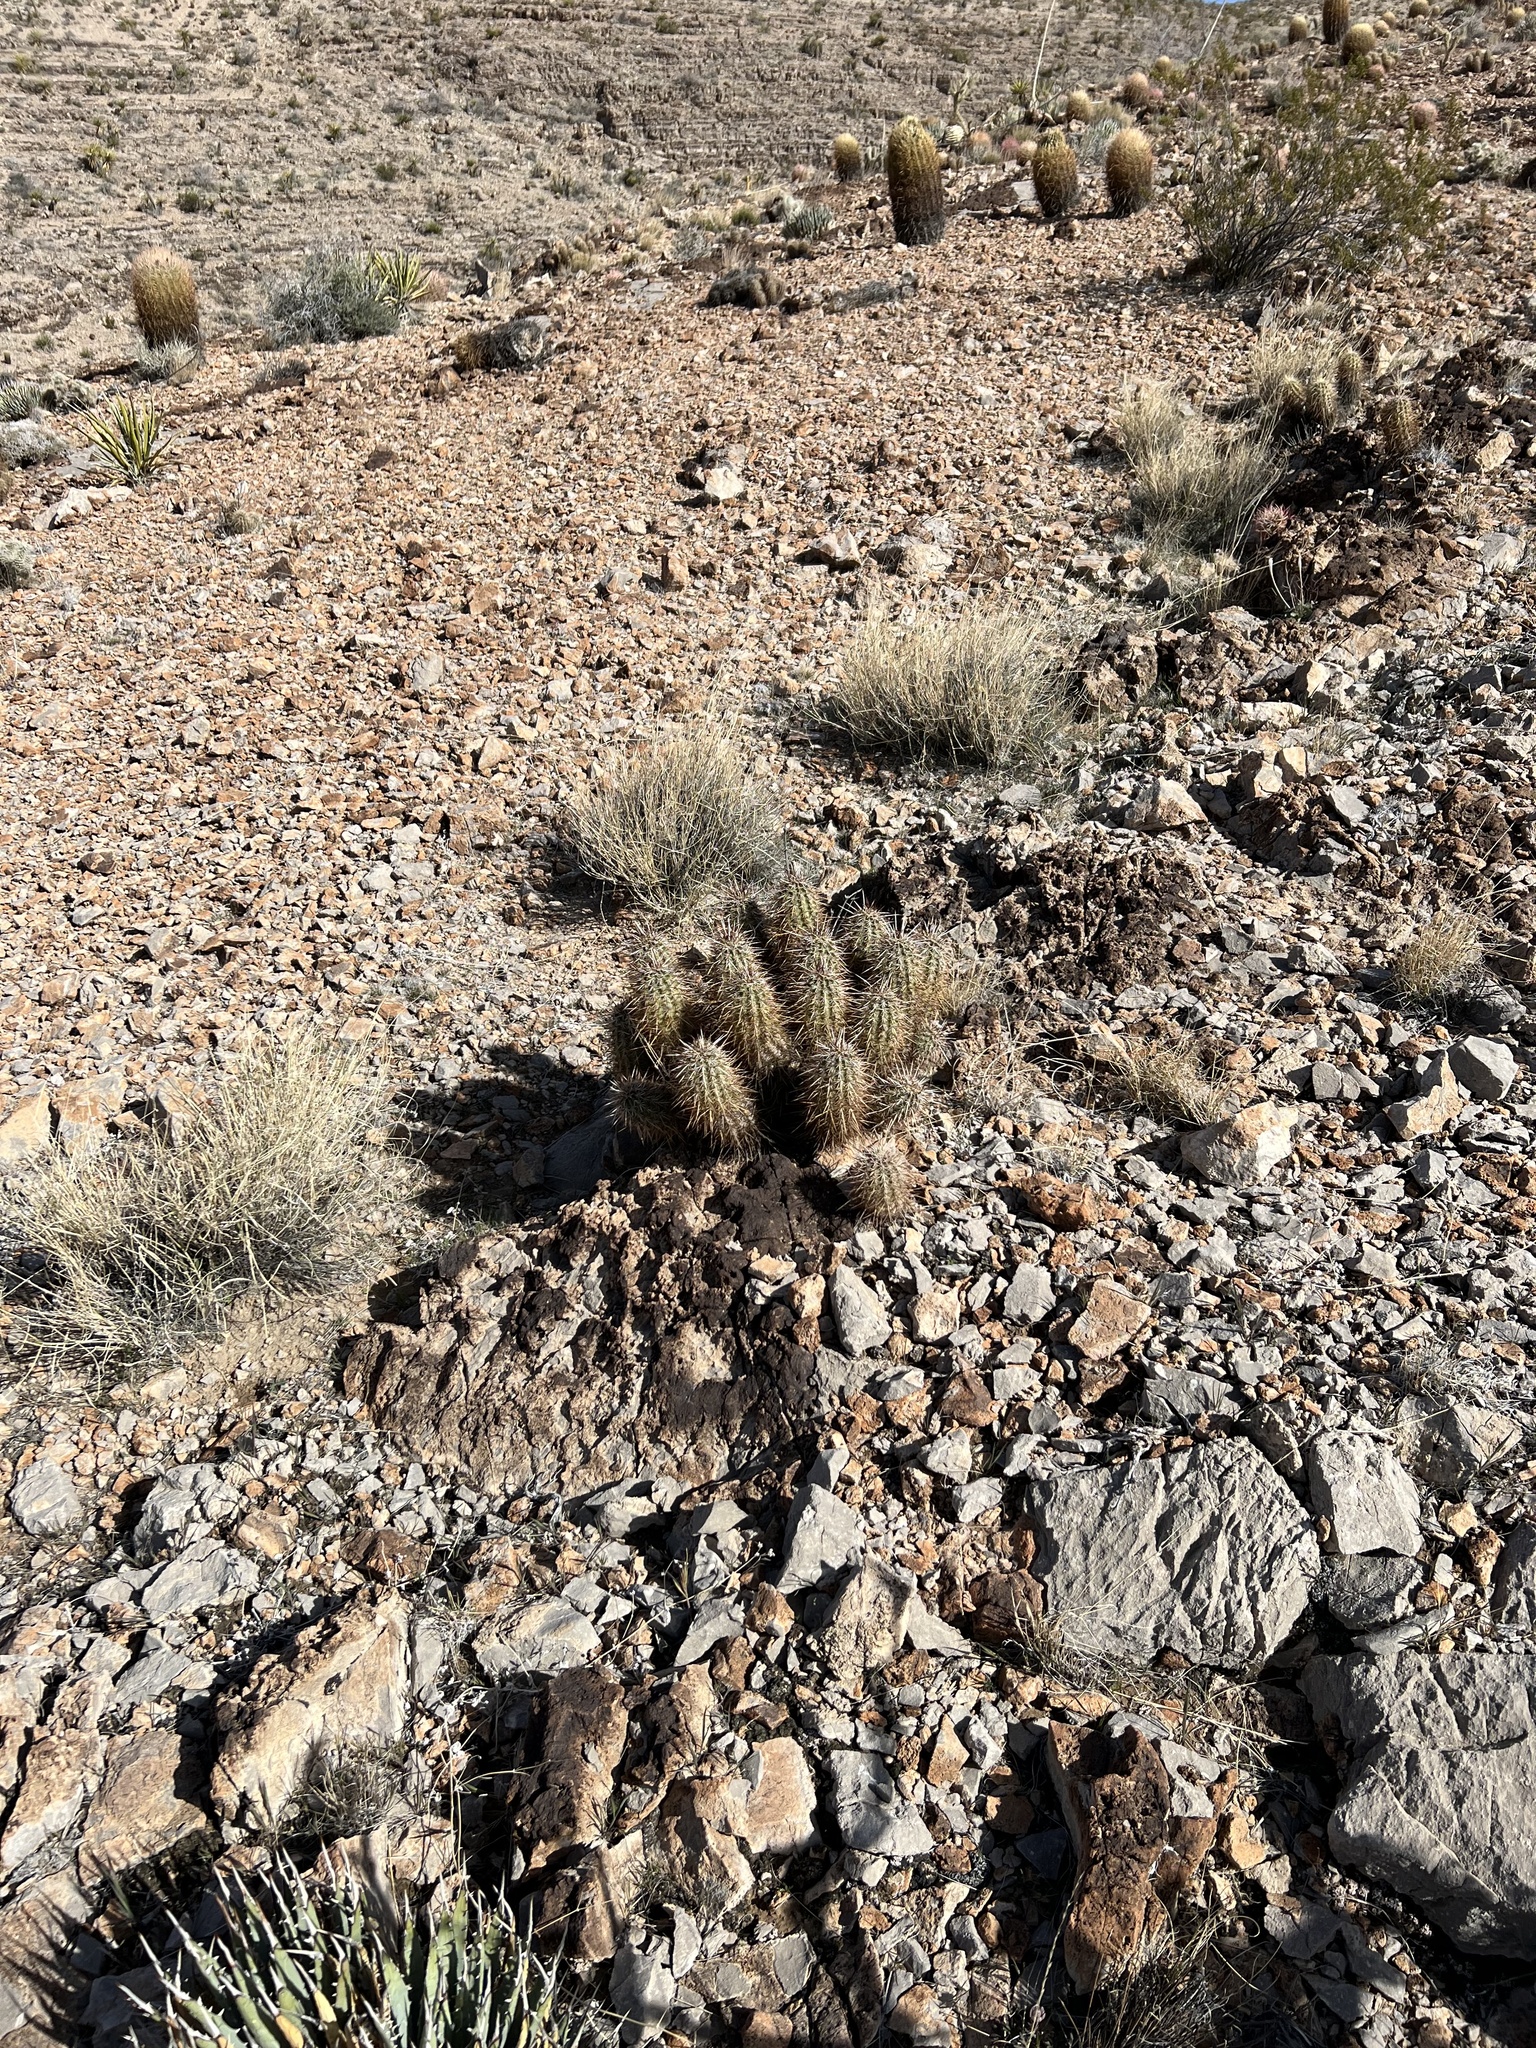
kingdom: Plantae
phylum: Tracheophyta
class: Magnoliopsida
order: Caryophyllales
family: Cactaceae
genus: Echinocereus
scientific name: Echinocereus engelmannii
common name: Engelmann's hedgehog cactus
